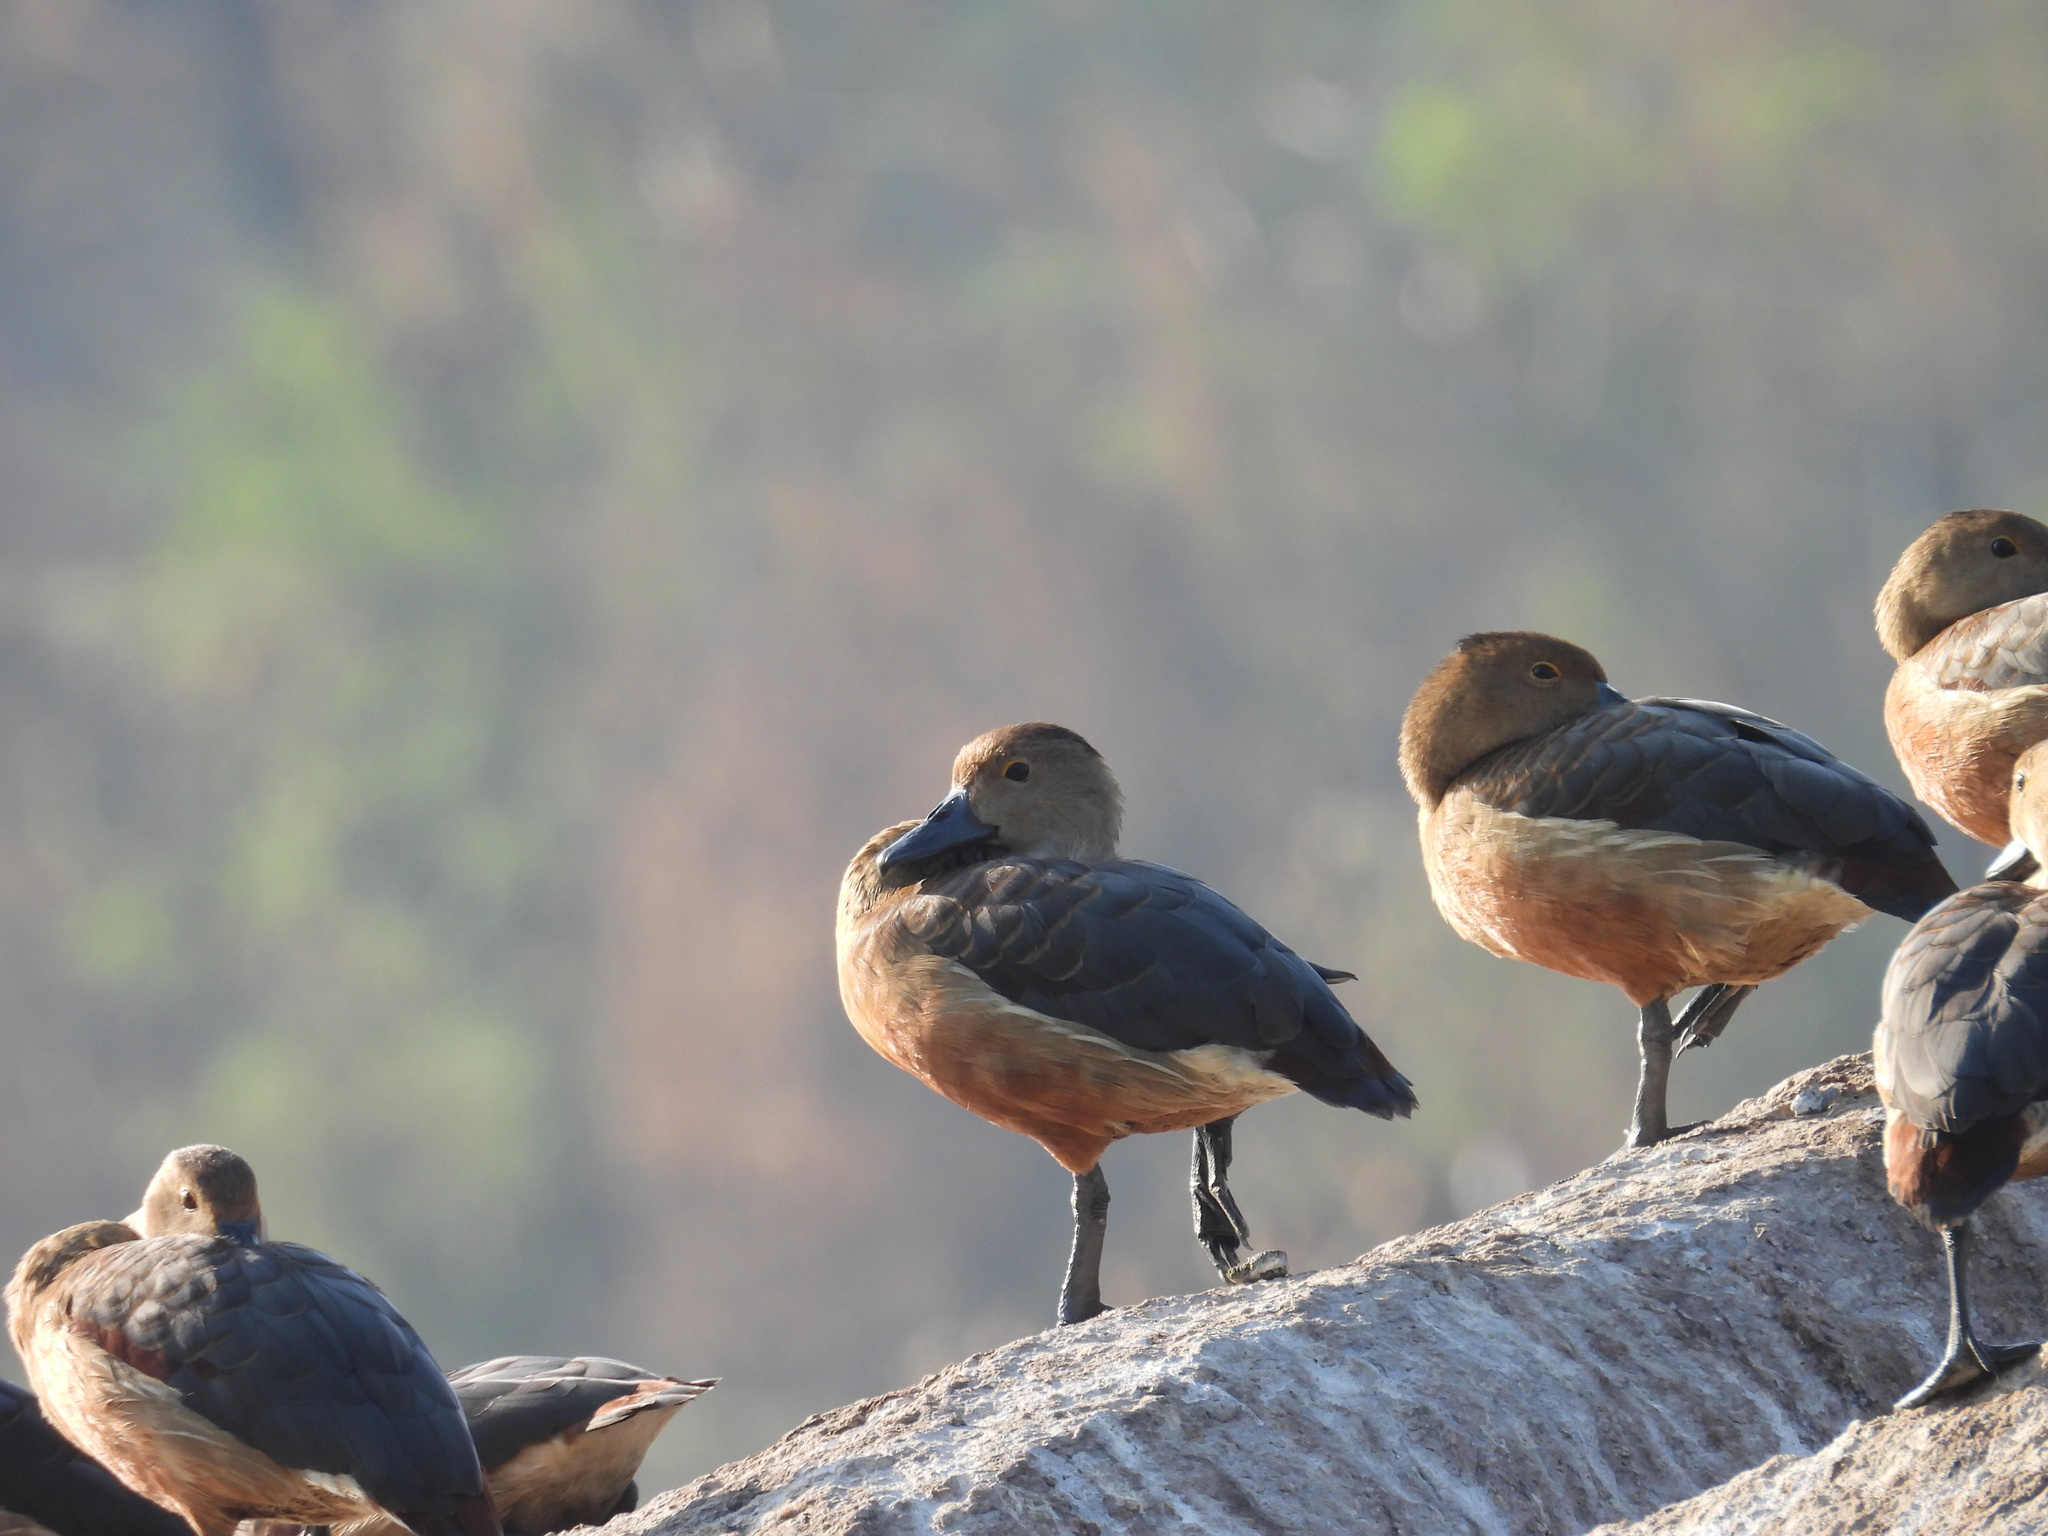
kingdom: Animalia
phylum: Chordata
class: Aves
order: Anseriformes
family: Anatidae
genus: Dendrocygna
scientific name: Dendrocygna javanica
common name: Lesser whistling-duck
